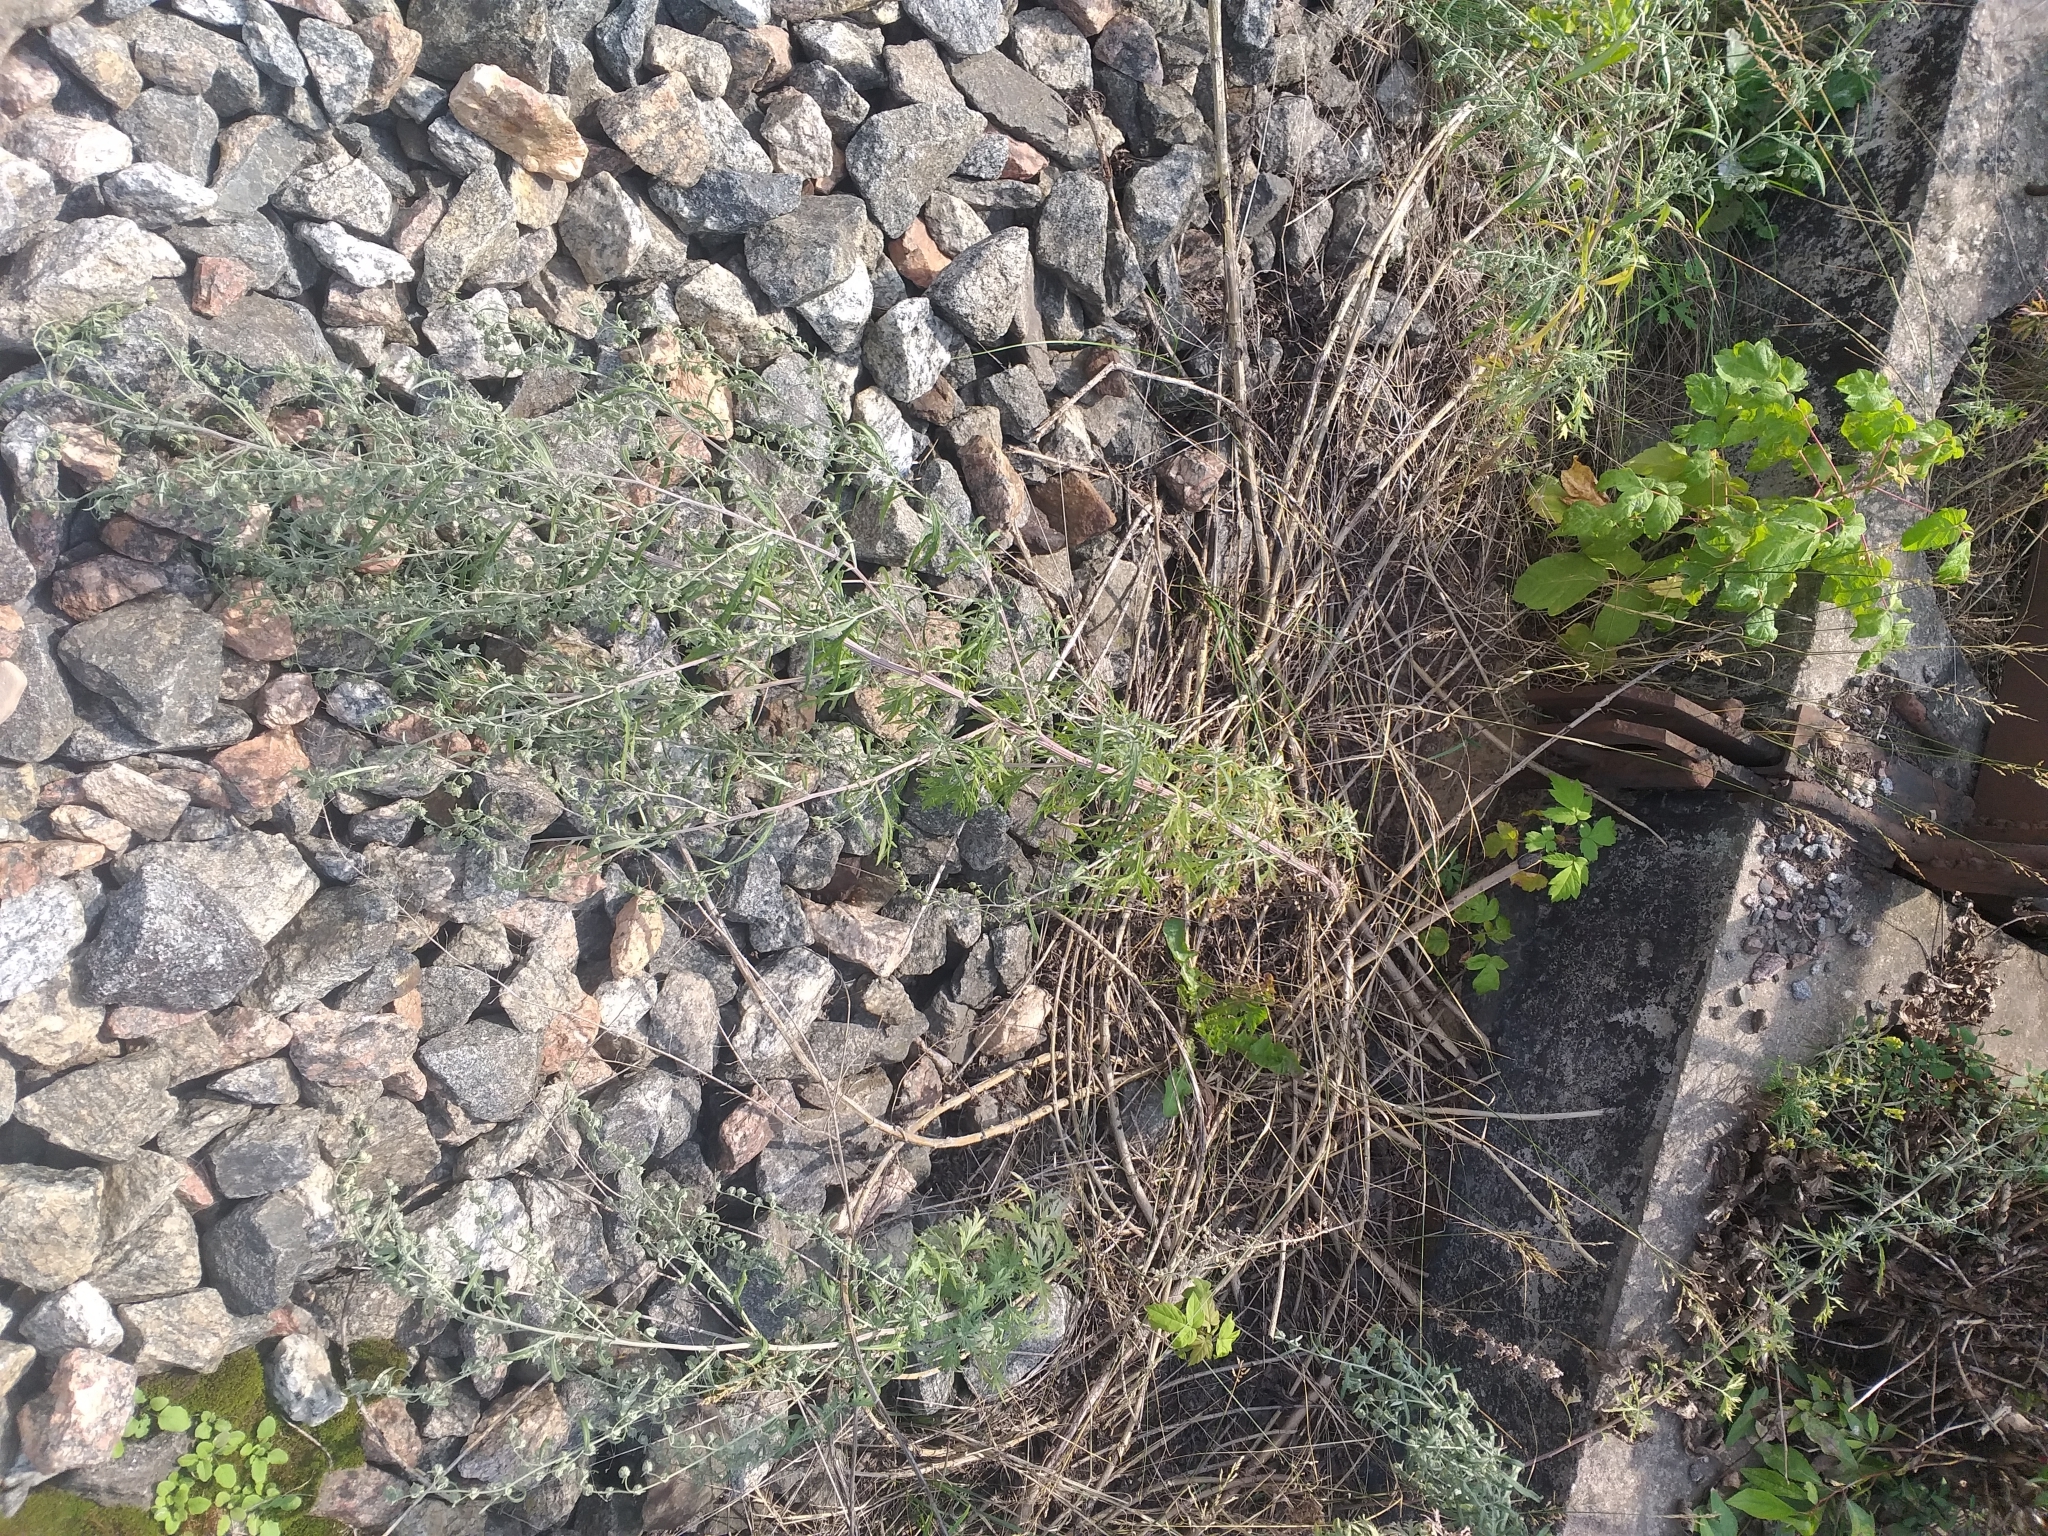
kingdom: Plantae
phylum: Tracheophyta
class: Magnoliopsida
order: Asterales
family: Asteraceae
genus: Artemisia
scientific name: Artemisia sieversiana
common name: Sieversian wormwood
